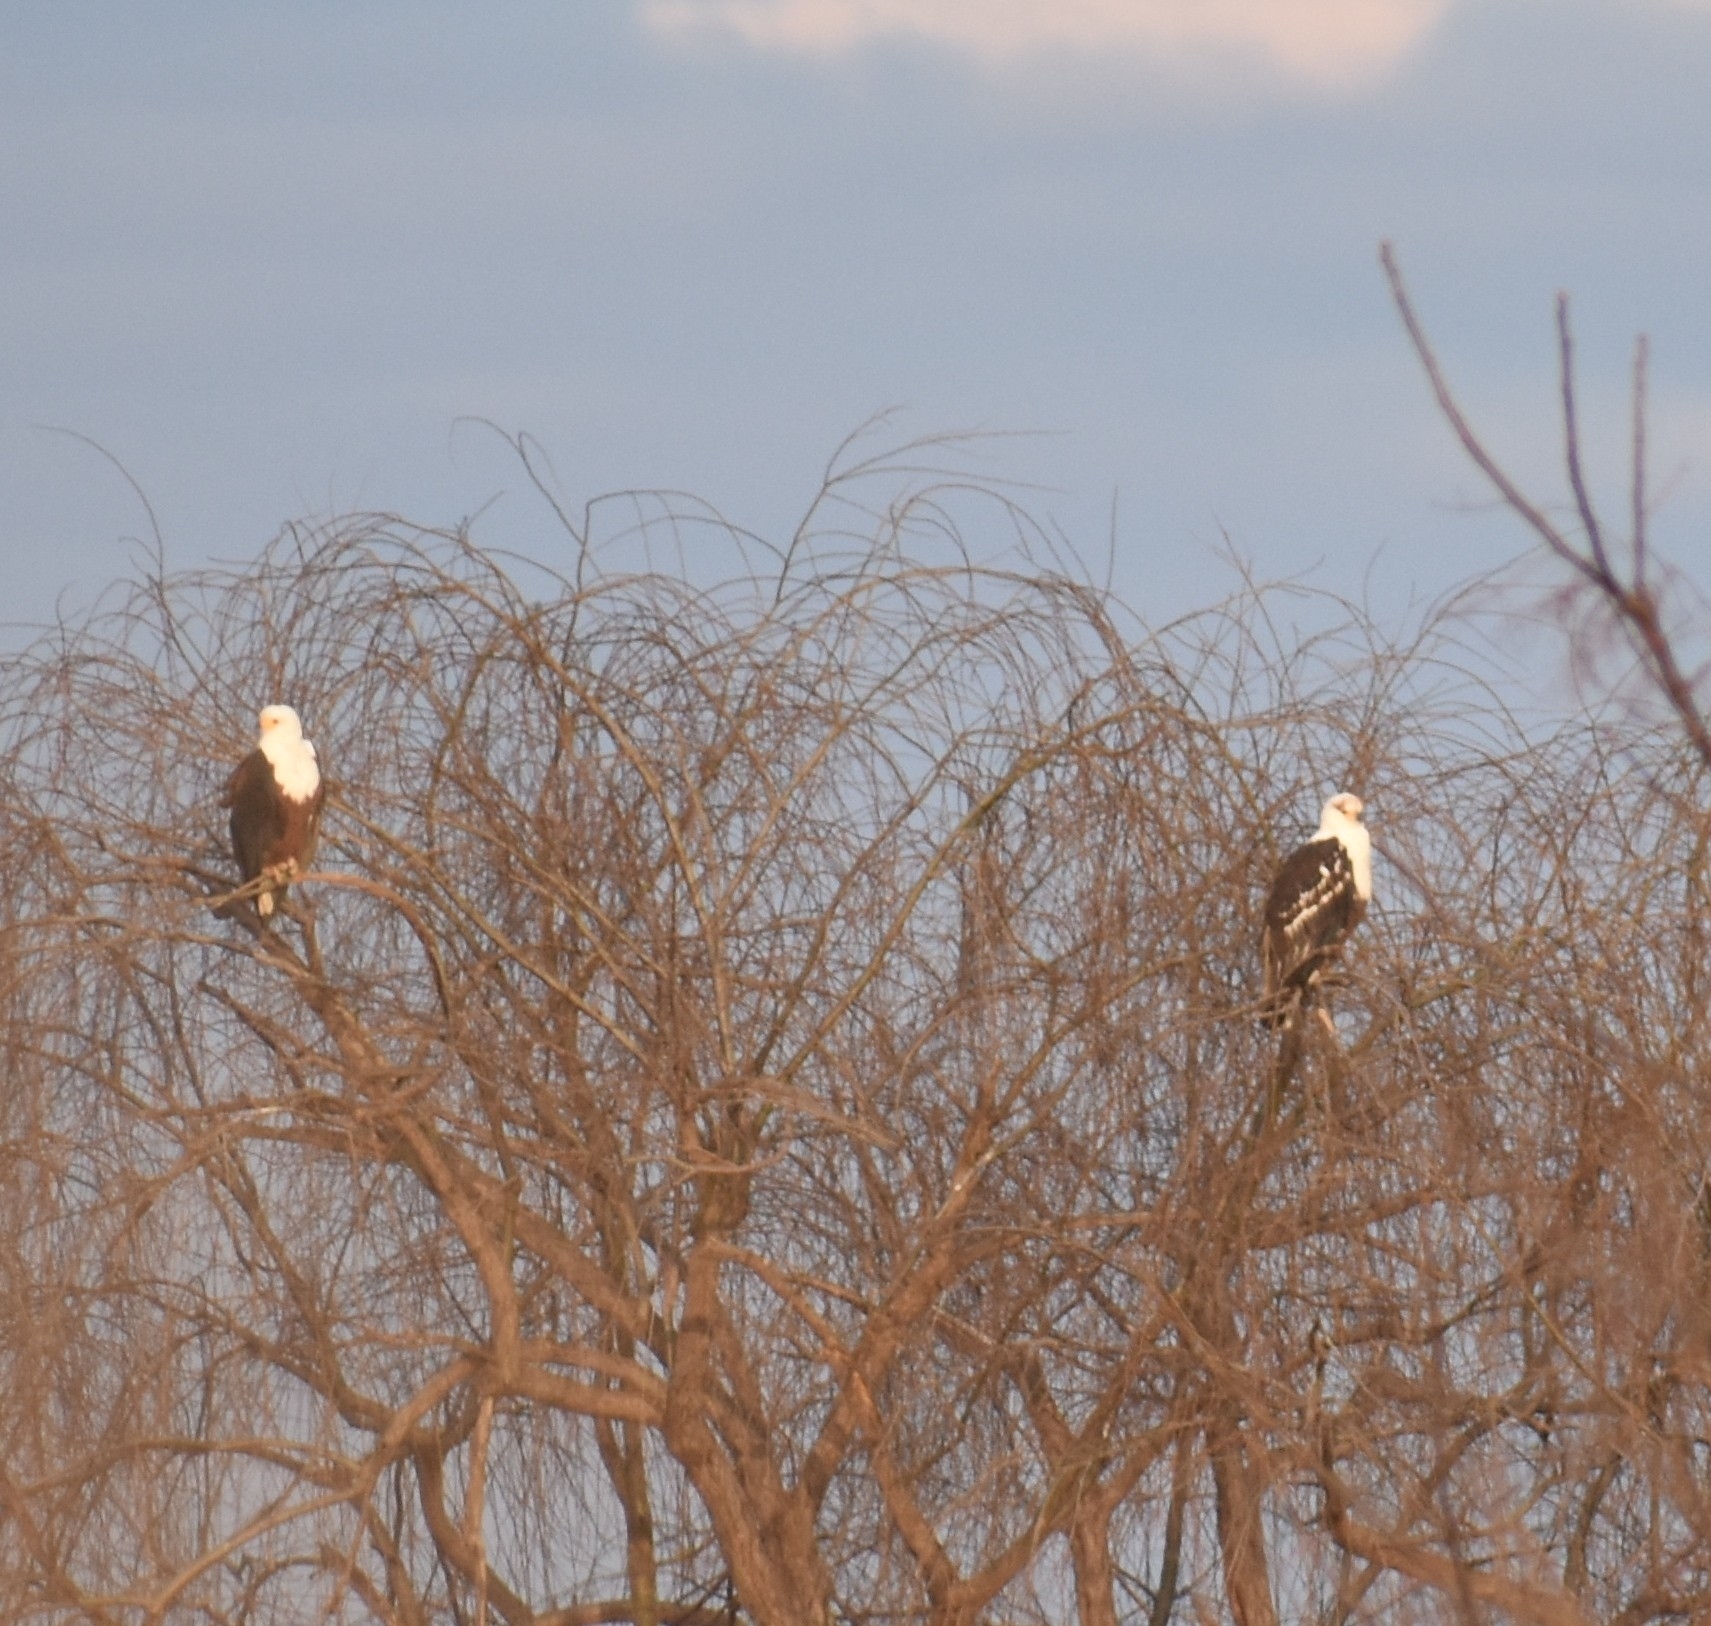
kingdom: Animalia
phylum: Chordata
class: Aves
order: Accipitriformes
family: Accipitridae
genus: Haliaeetus
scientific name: Haliaeetus vocifer
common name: African fish eagle
